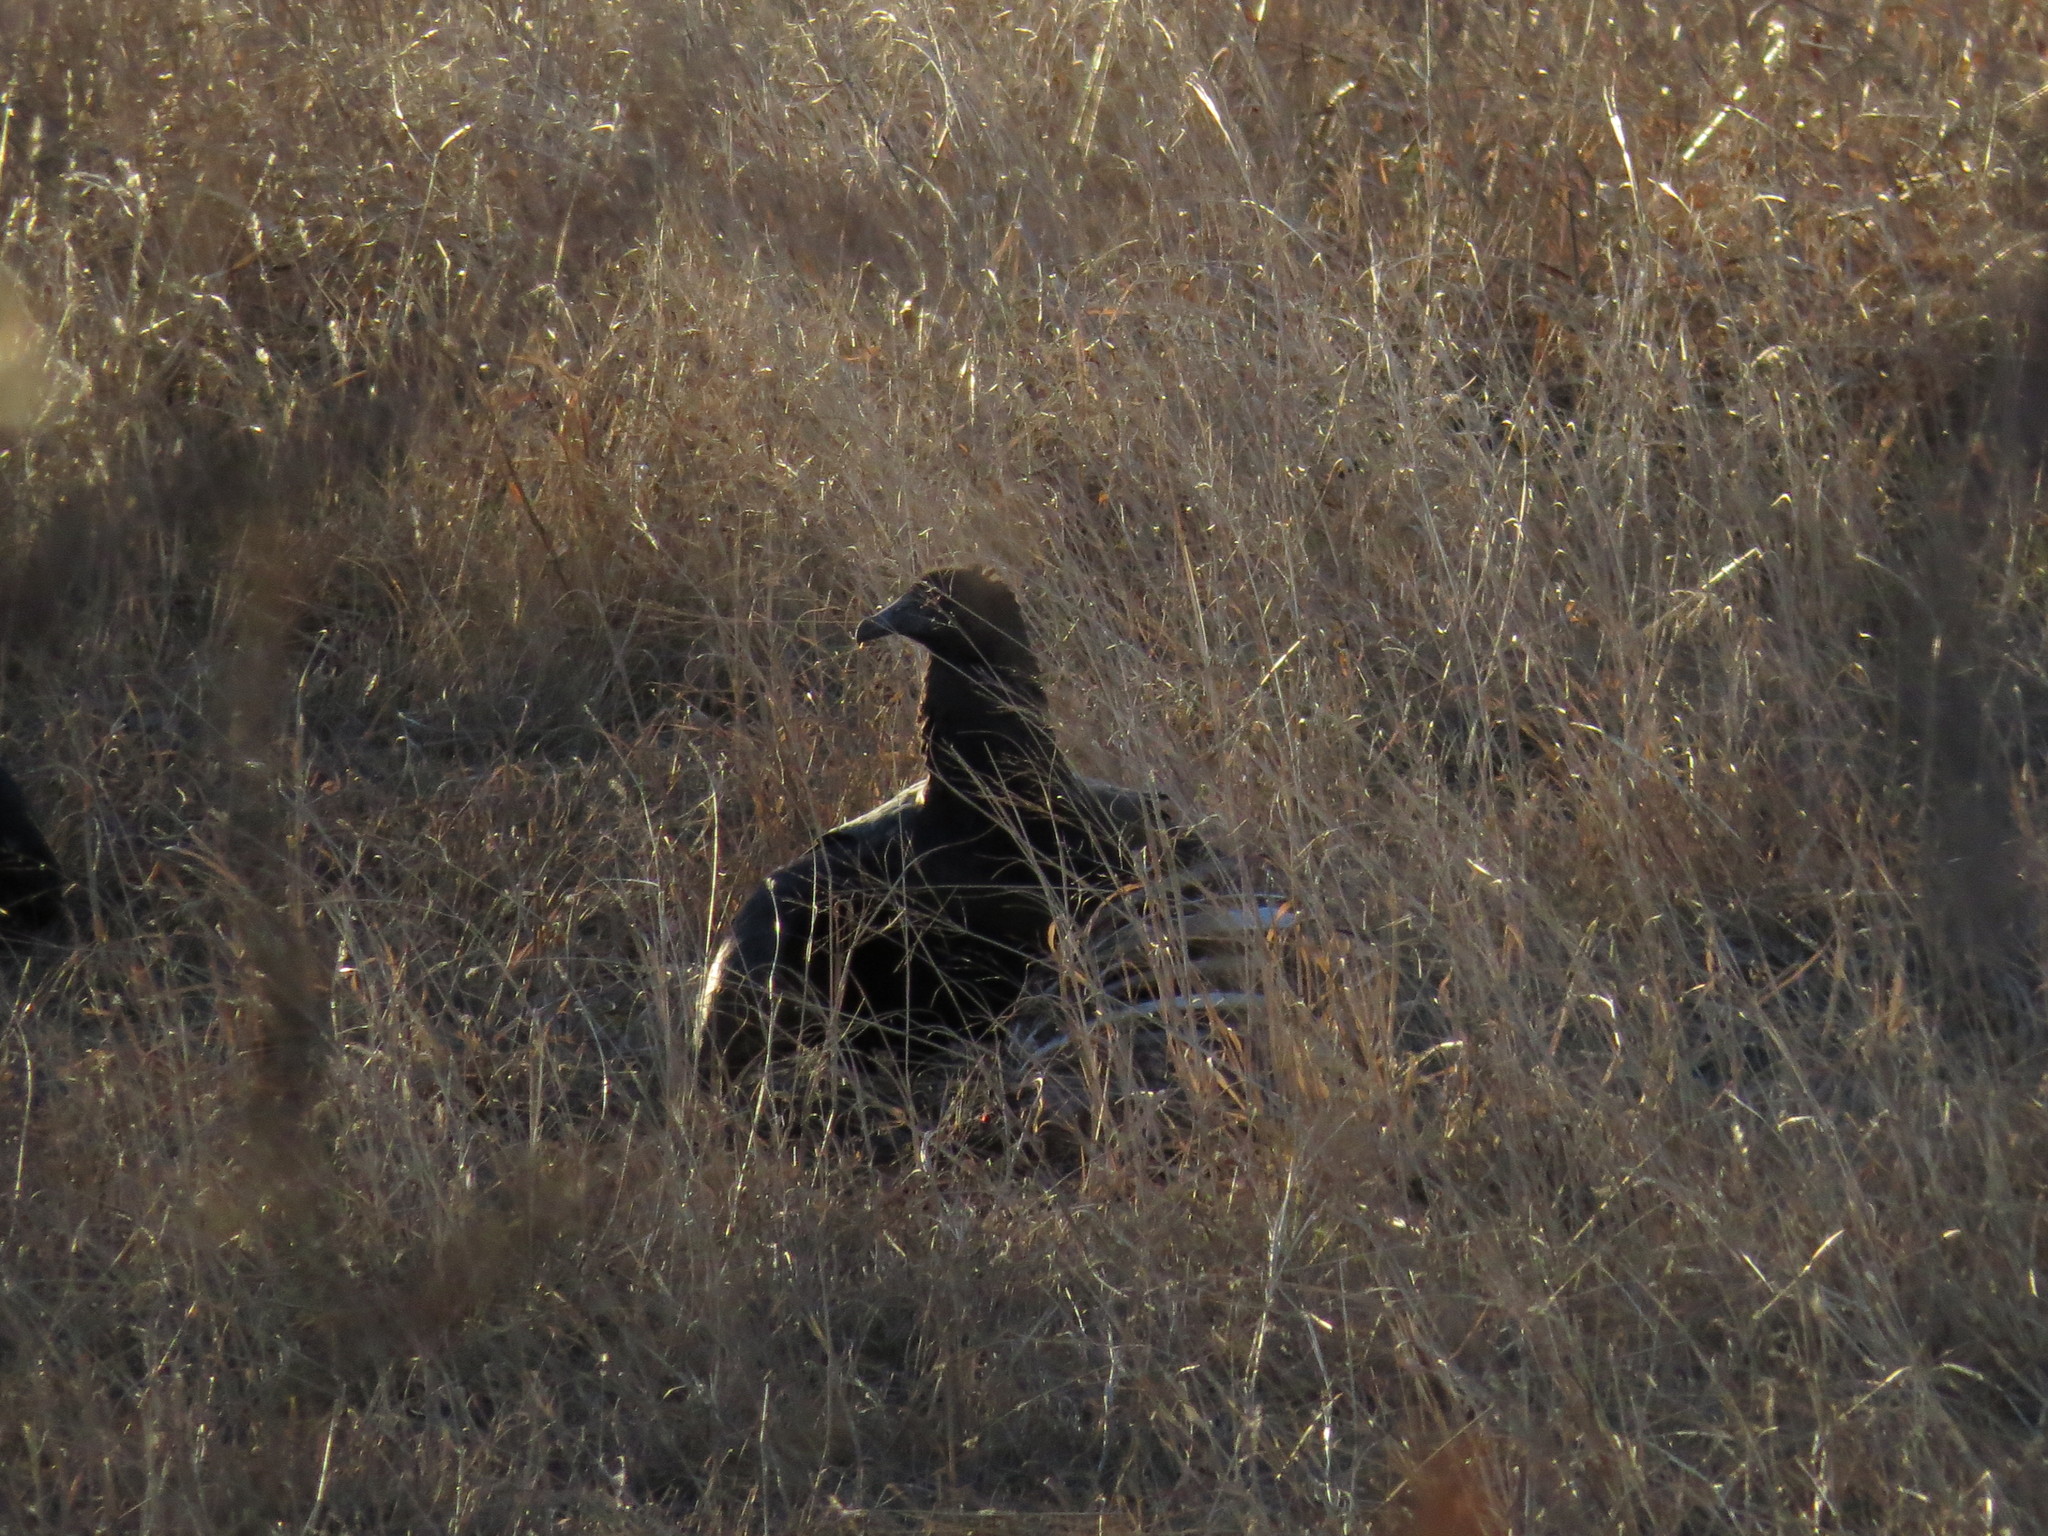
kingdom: Animalia
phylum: Chordata
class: Aves
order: Accipitriformes
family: Cathartidae
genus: Coragyps
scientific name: Coragyps atratus
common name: Black vulture
